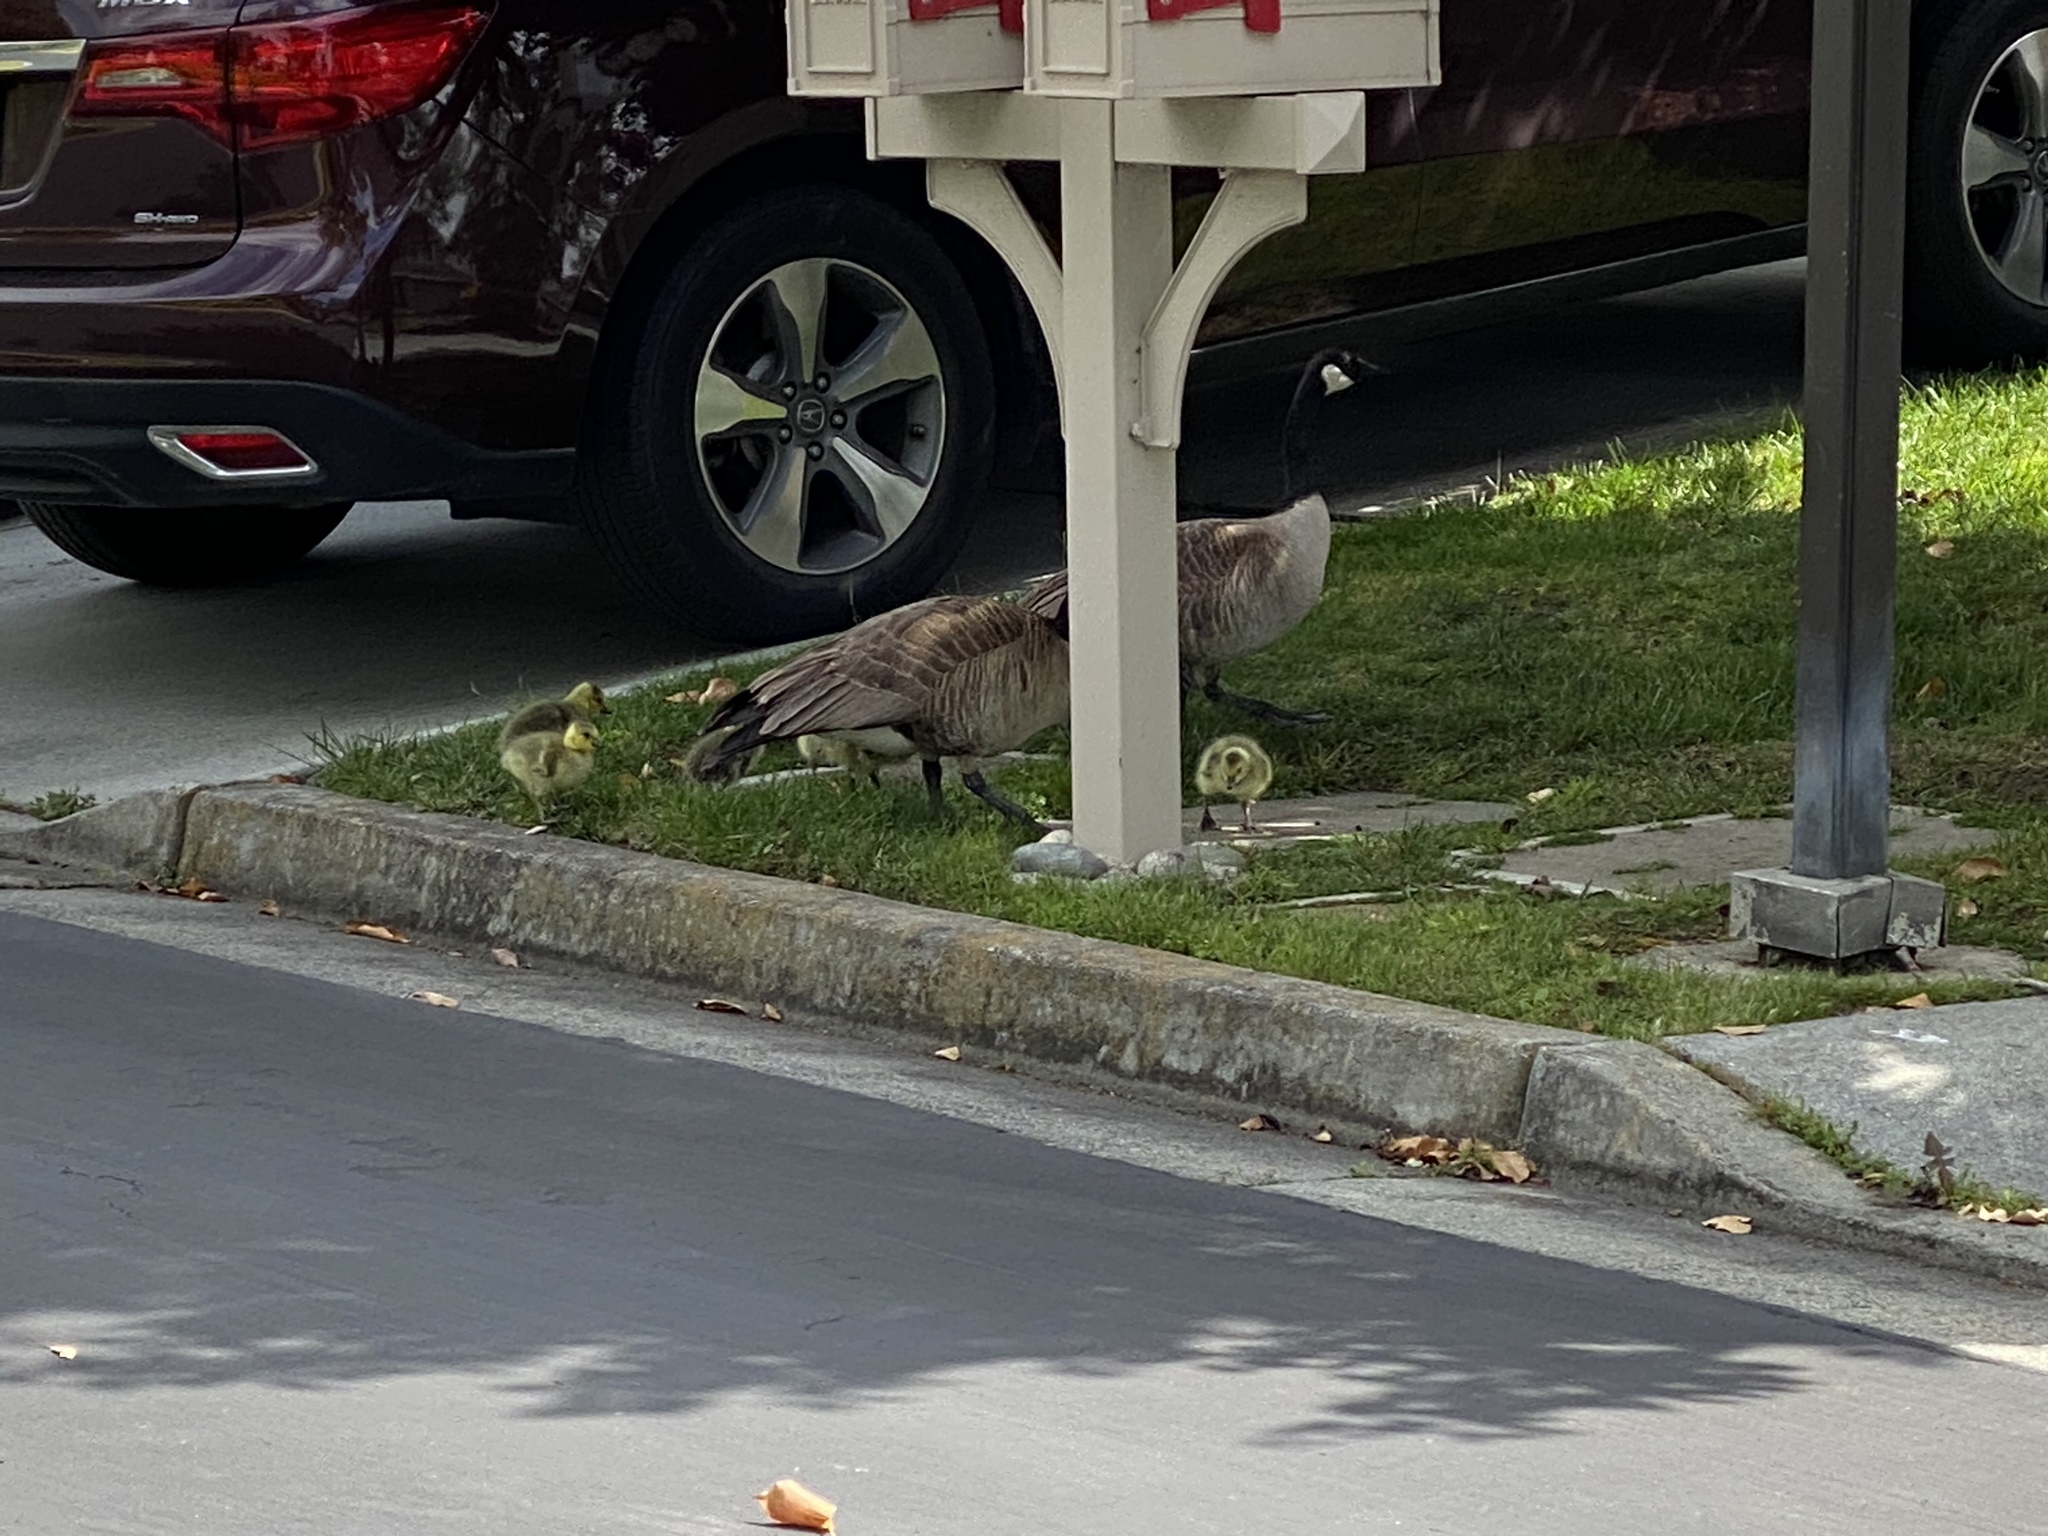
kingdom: Animalia
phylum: Chordata
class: Aves
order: Anseriformes
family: Anatidae
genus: Branta
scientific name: Branta canadensis
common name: Canada goose
